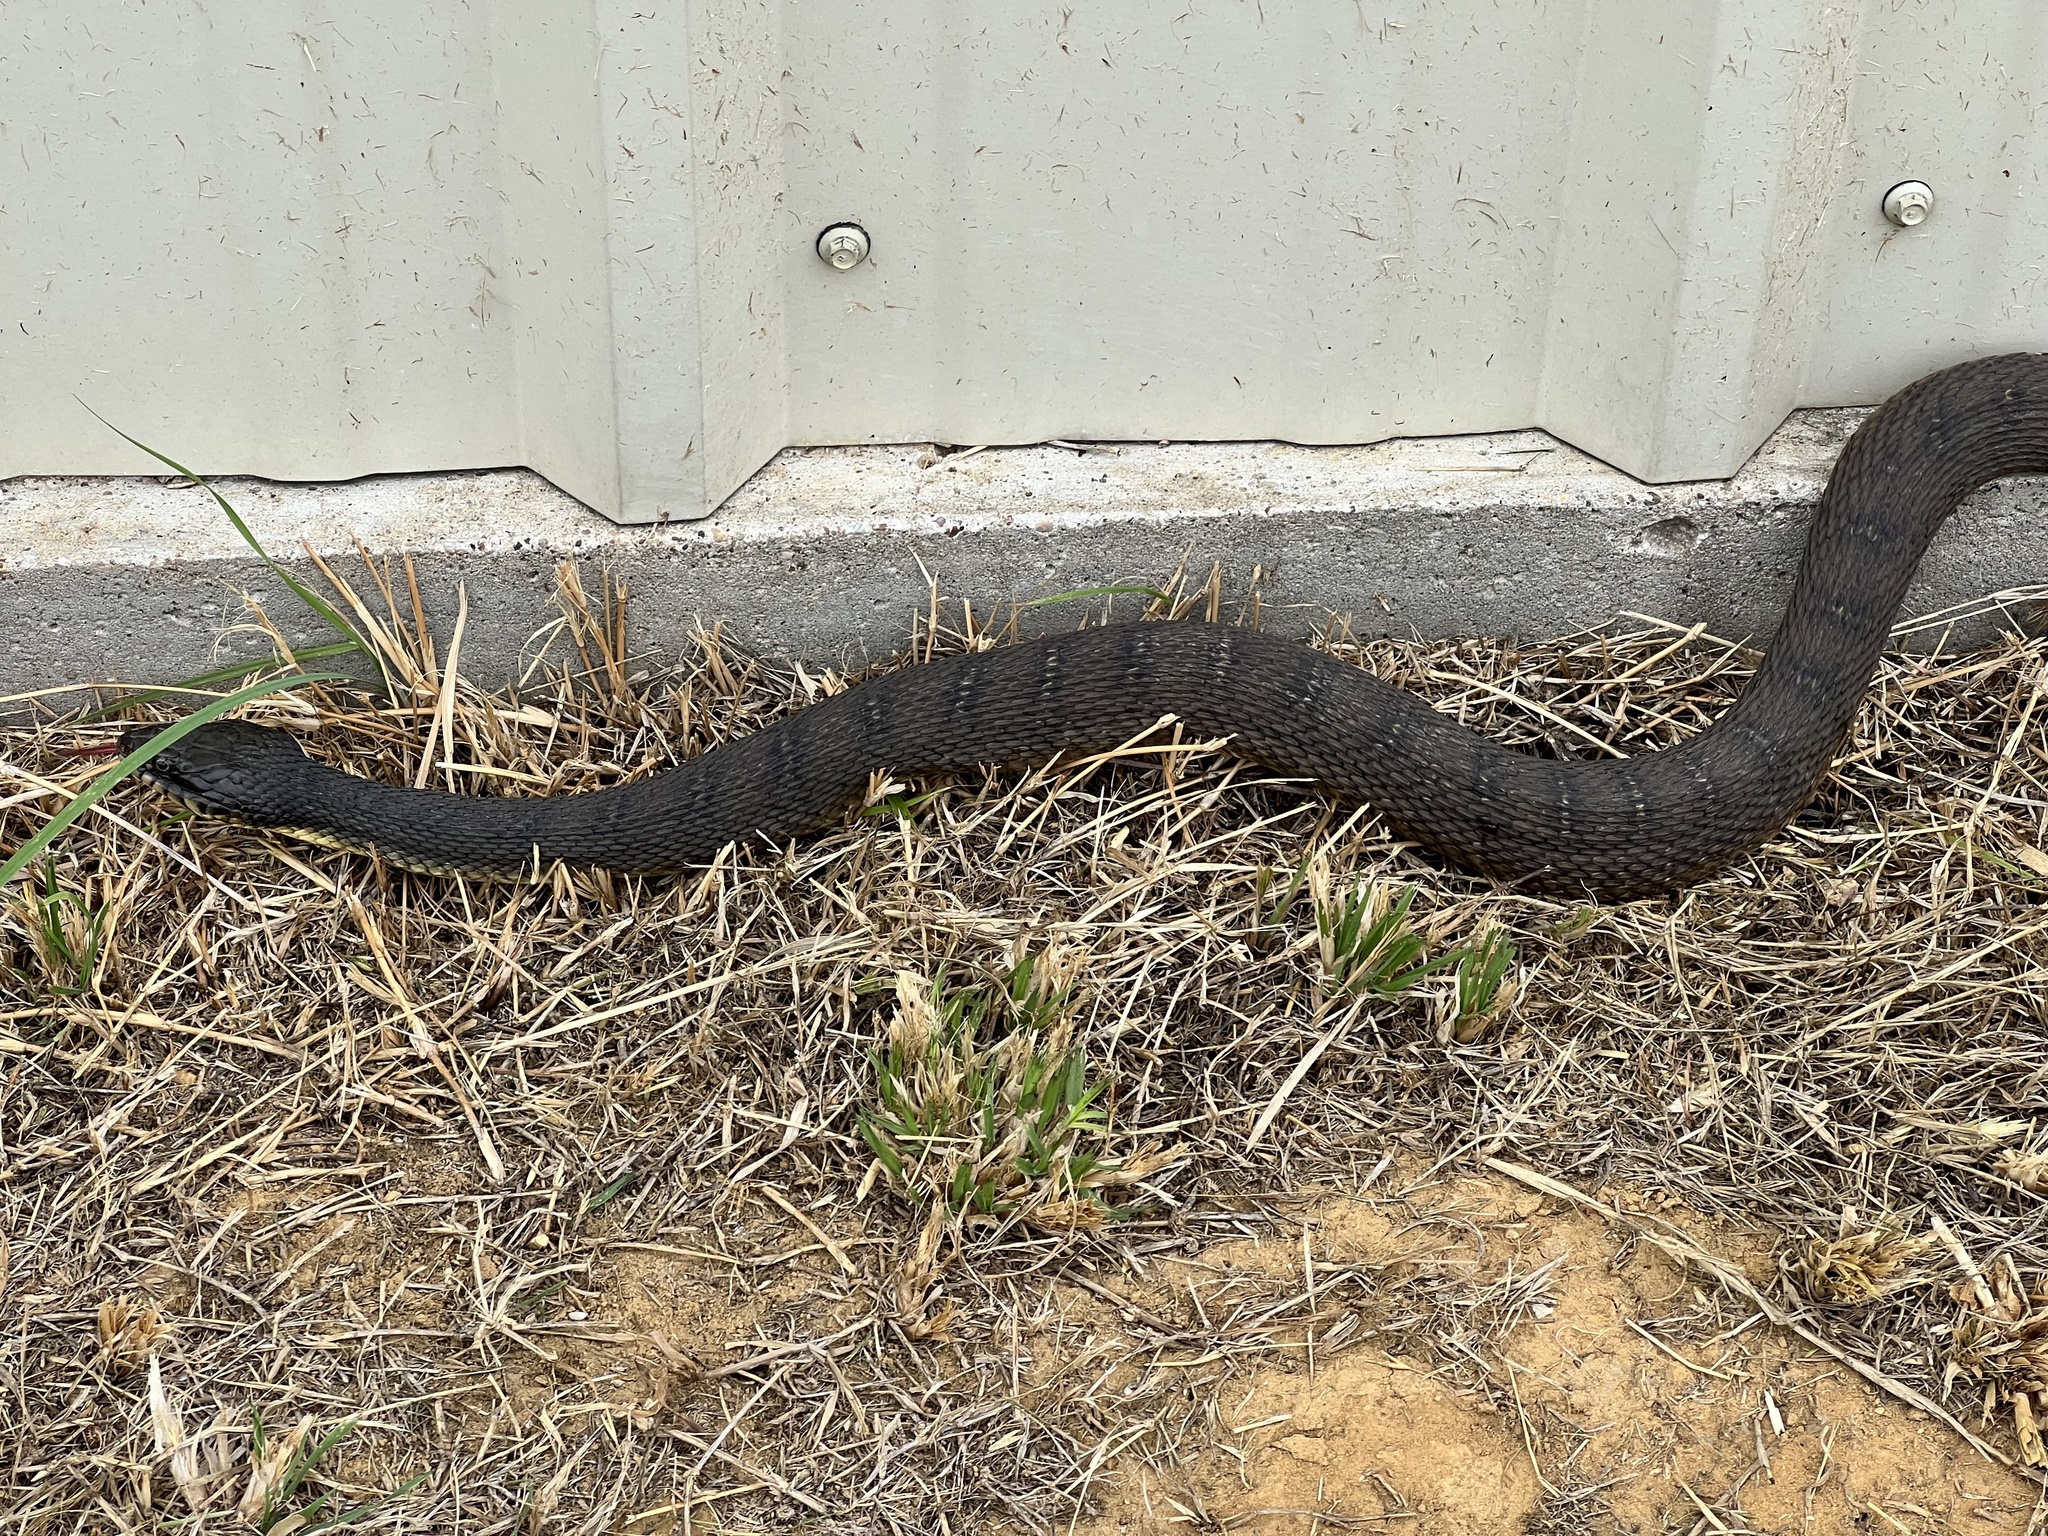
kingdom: Animalia
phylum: Chordata
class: Squamata
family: Colubridae
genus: Nerodia
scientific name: Nerodia erythrogaster
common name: Plainbelly water snake
